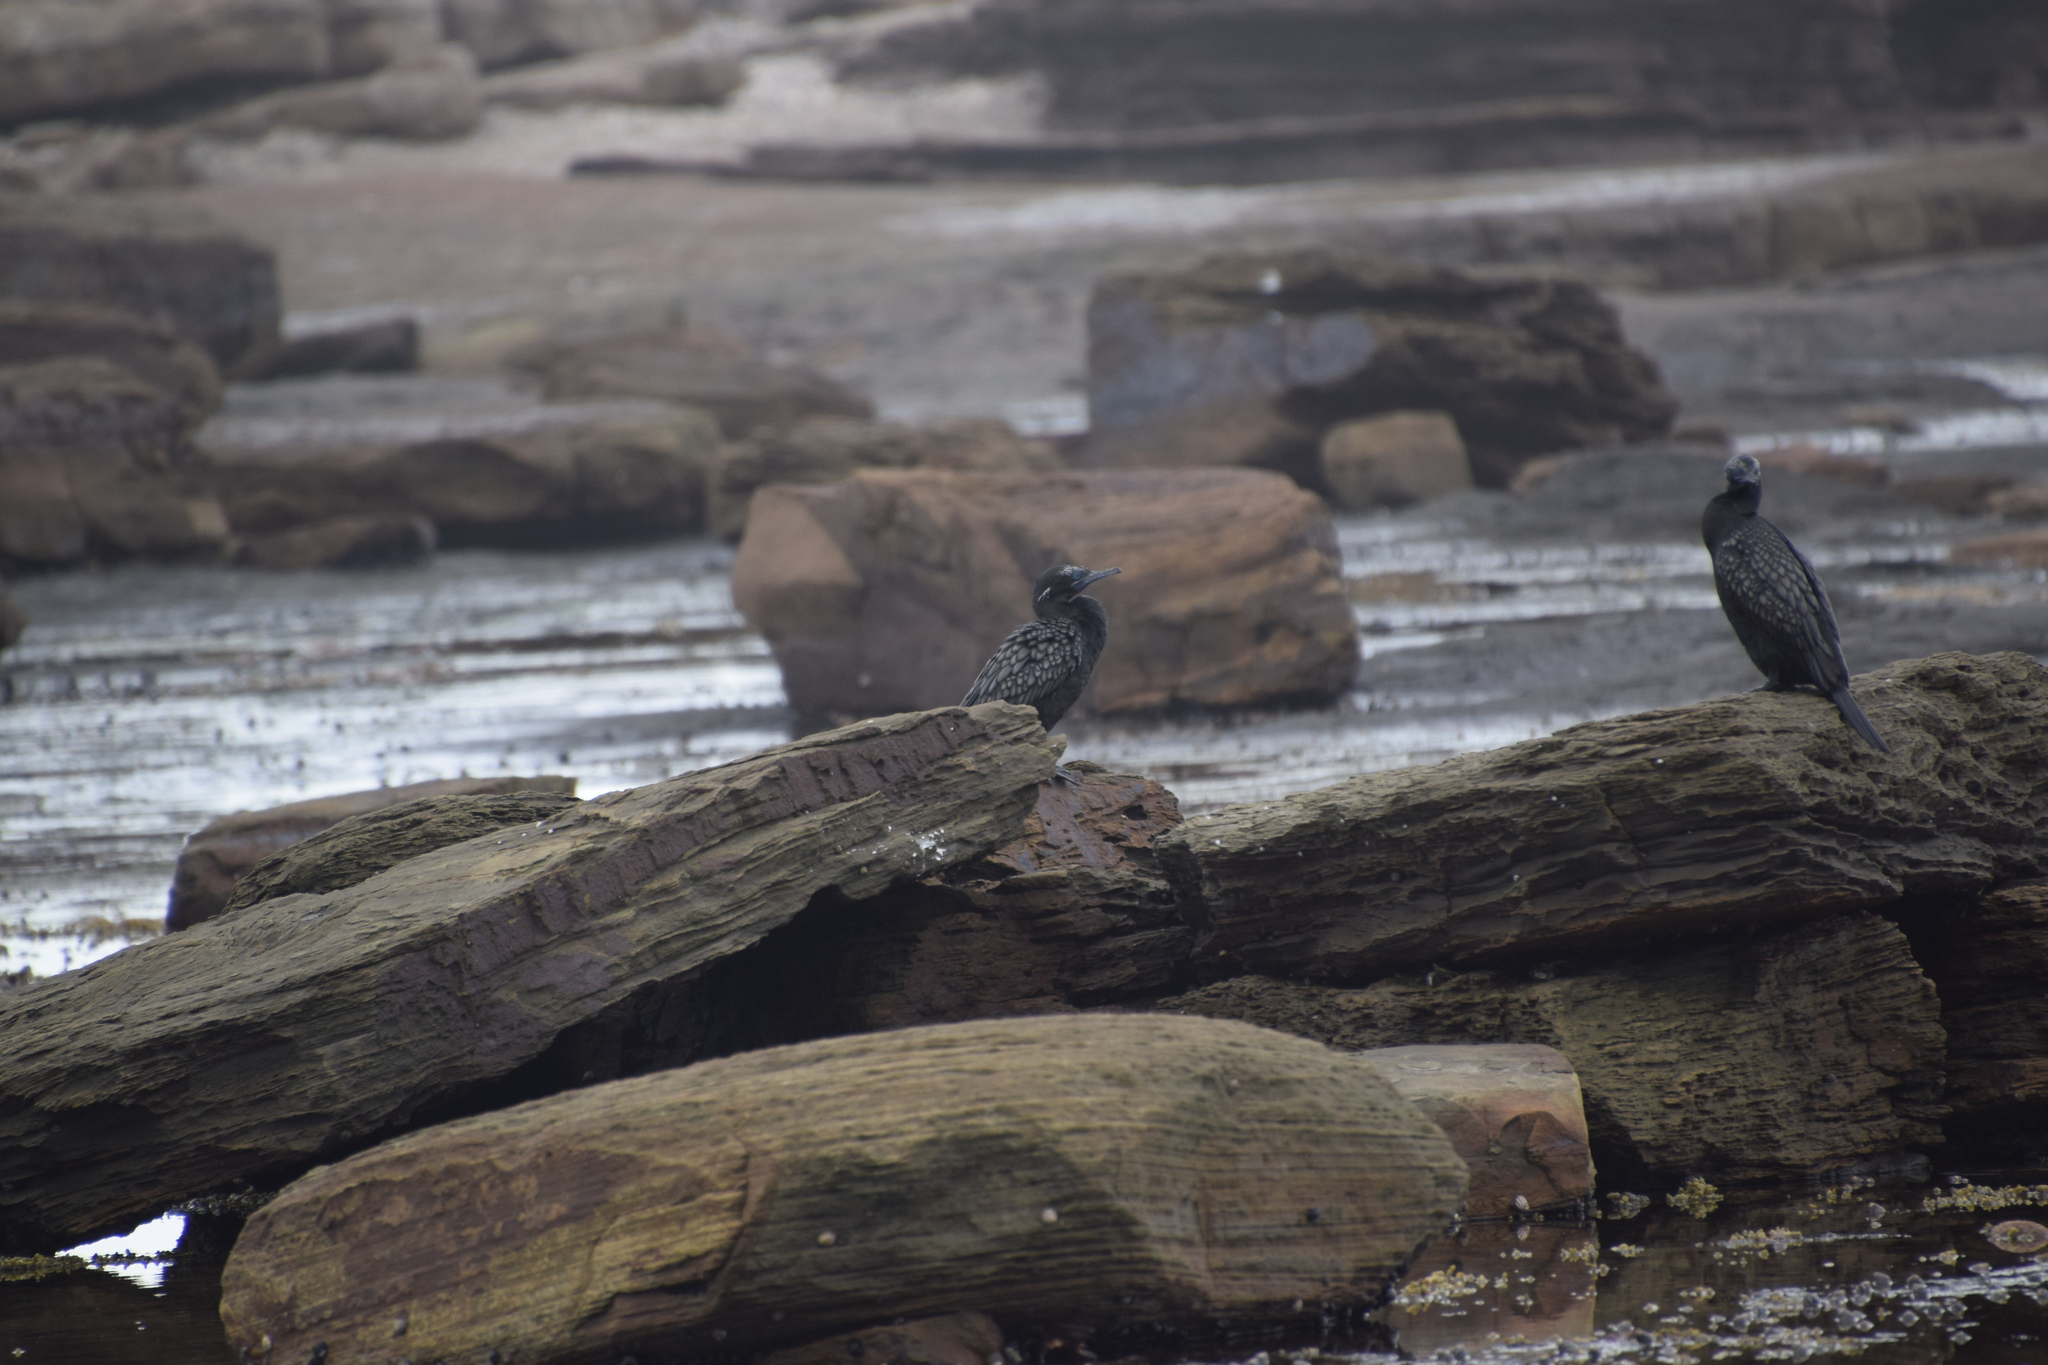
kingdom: Animalia
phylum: Chordata
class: Aves
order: Suliformes
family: Phalacrocoracidae
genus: Phalacrocorax
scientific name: Phalacrocorax sulcirostris
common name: Little black cormorant
